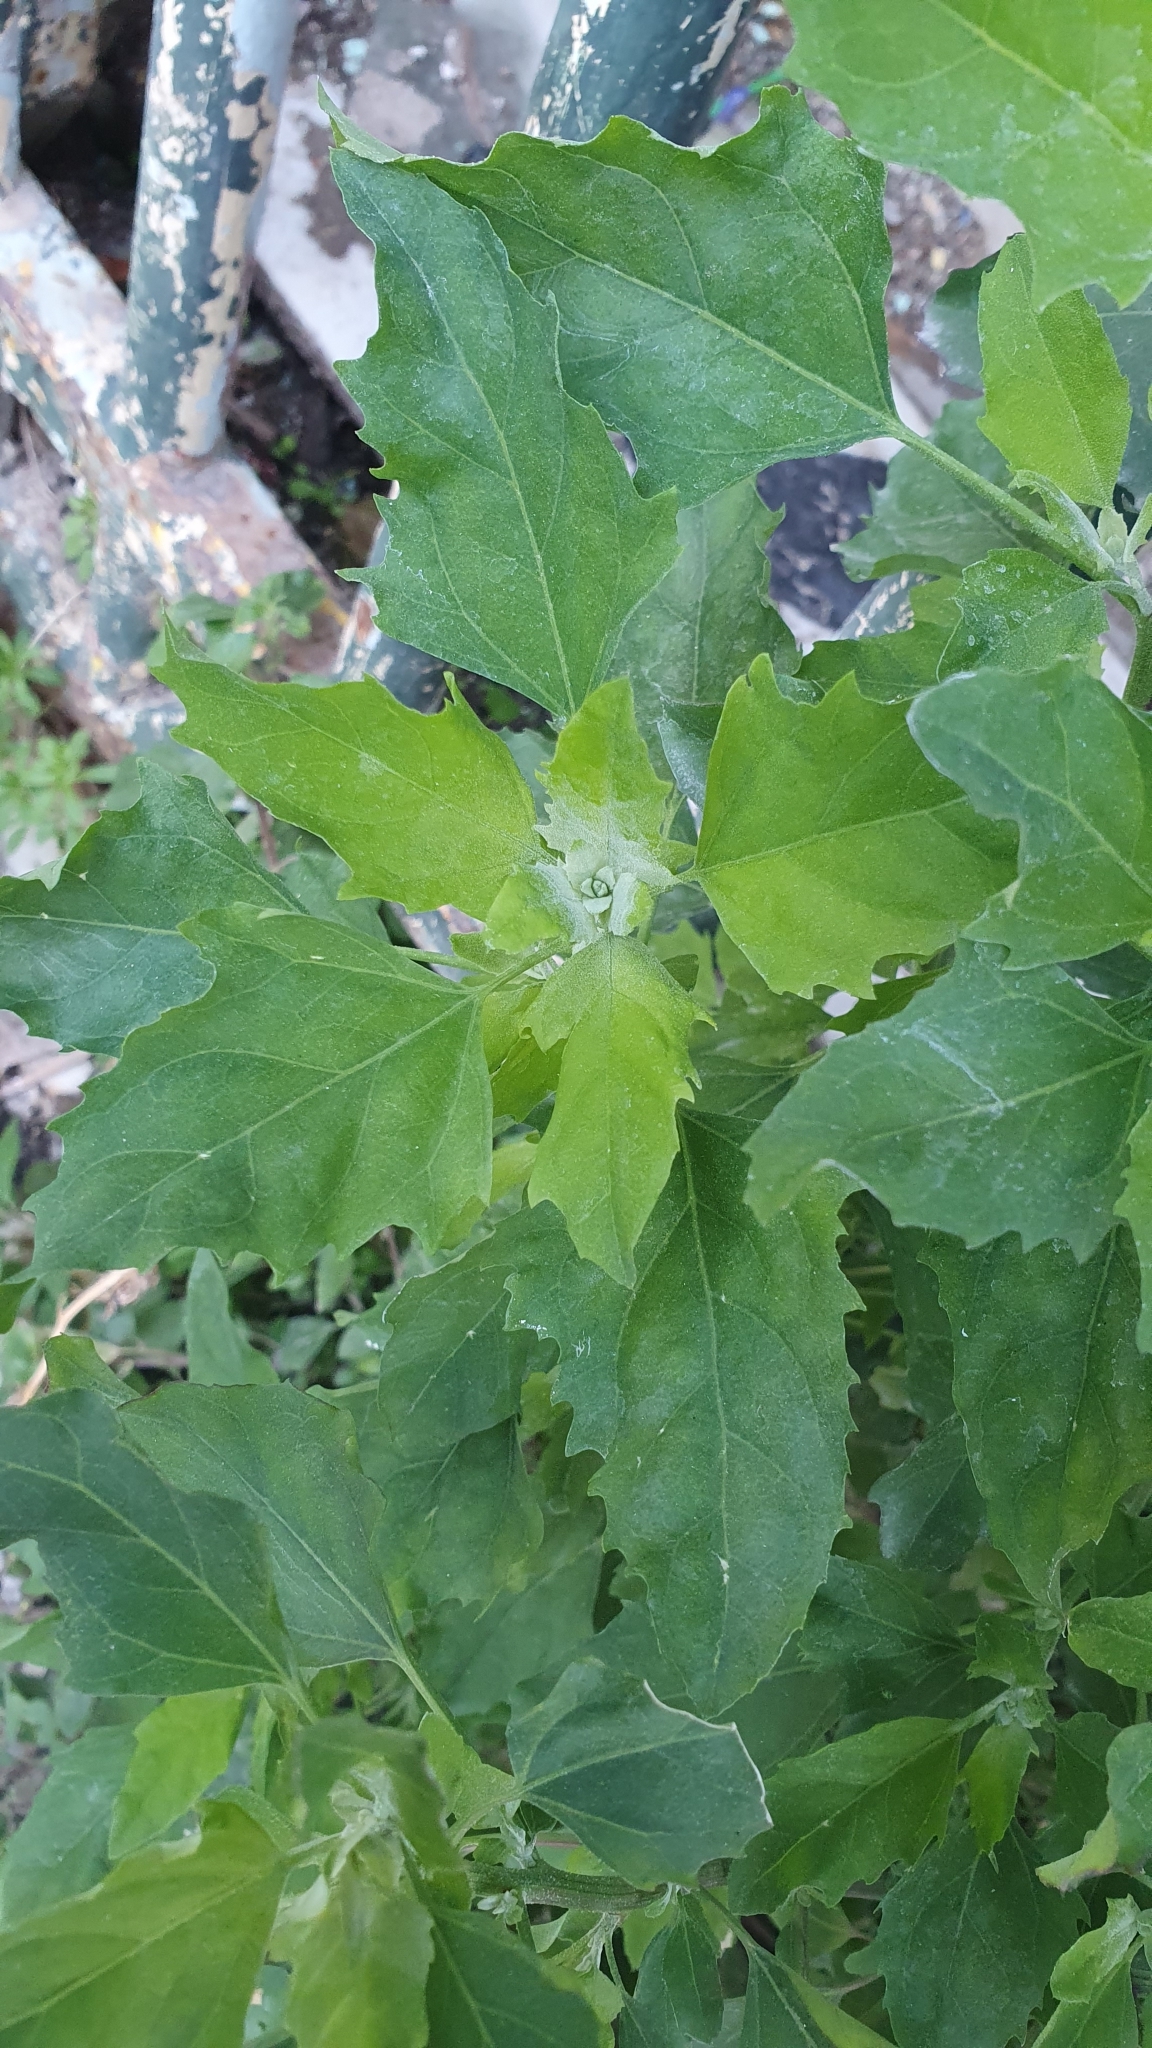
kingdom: Plantae
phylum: Tracheophyta
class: Magnoliopsida
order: Caryophyllales
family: Amaranthaceae
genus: Chenopodium
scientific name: Chenopodium album
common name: Fat-hen
